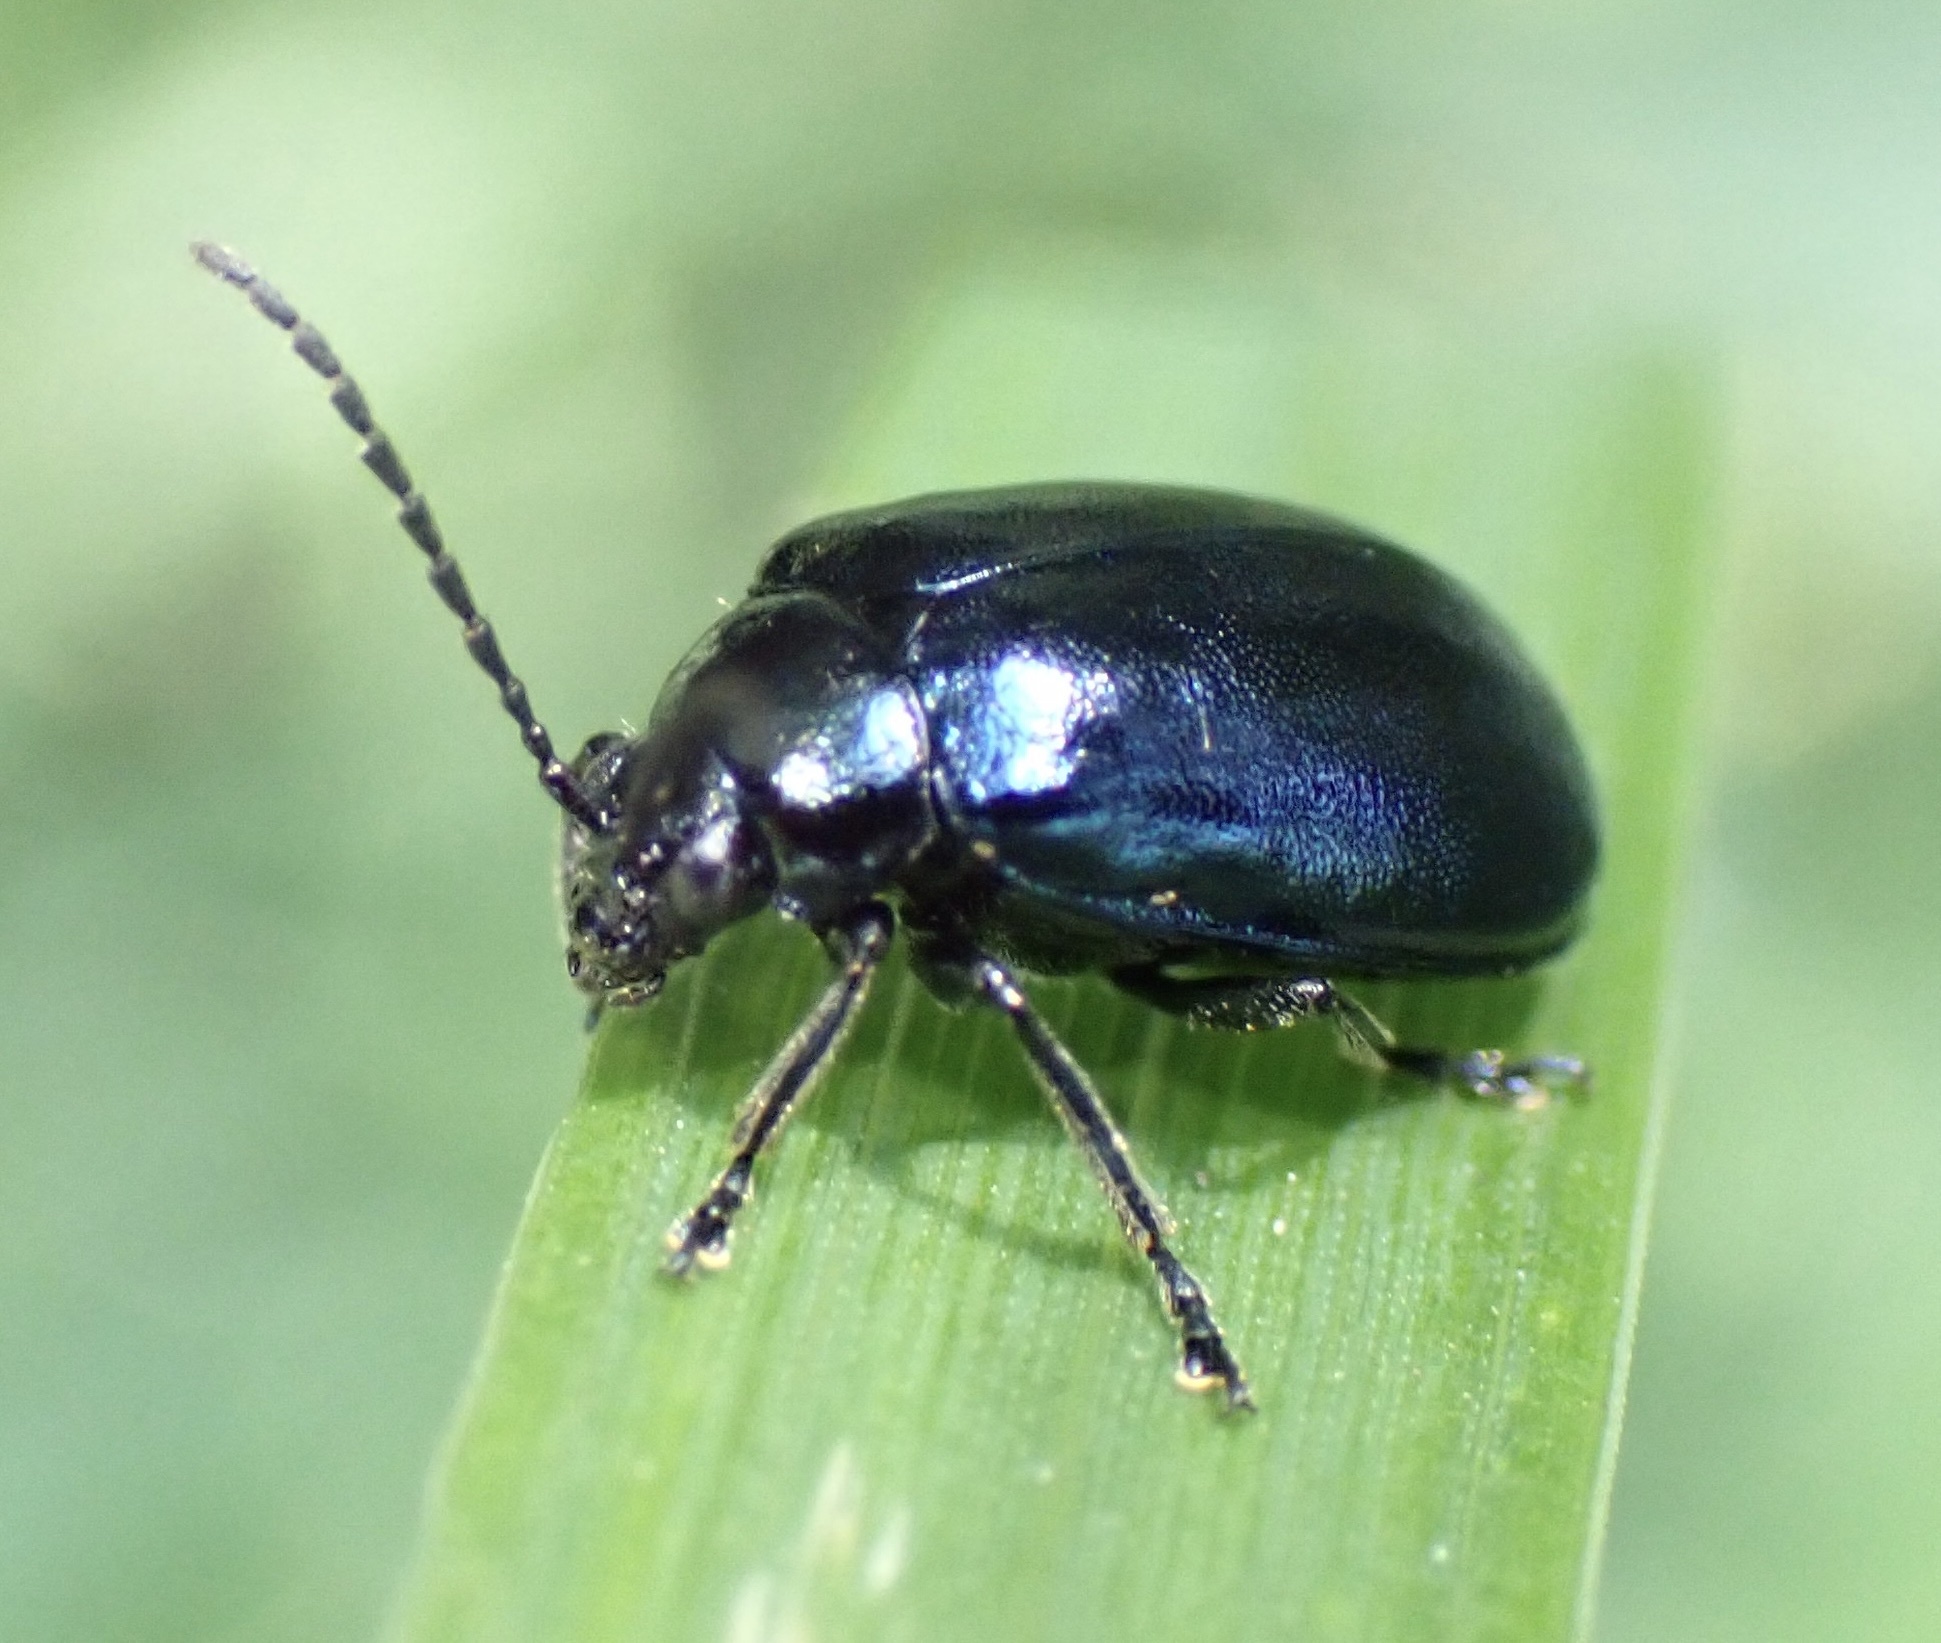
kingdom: Animalia
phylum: Arthropoda
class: Insecta
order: Coleoptera
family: Chrysomelidae
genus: Agelastica
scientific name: Agelastica alni
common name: Alder leaf beetle
